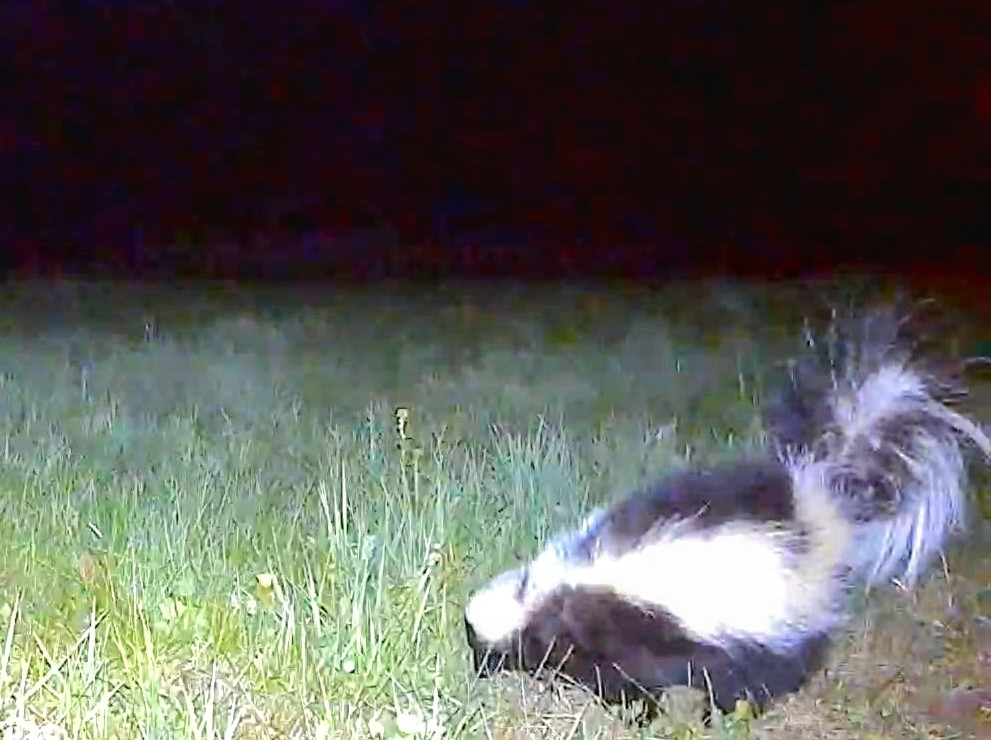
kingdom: Animalia
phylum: Chordata
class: Mammalia
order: Carnivora
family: Mephitidae
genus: Mephitis
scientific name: Mephitis mephitis
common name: Striped skunk
